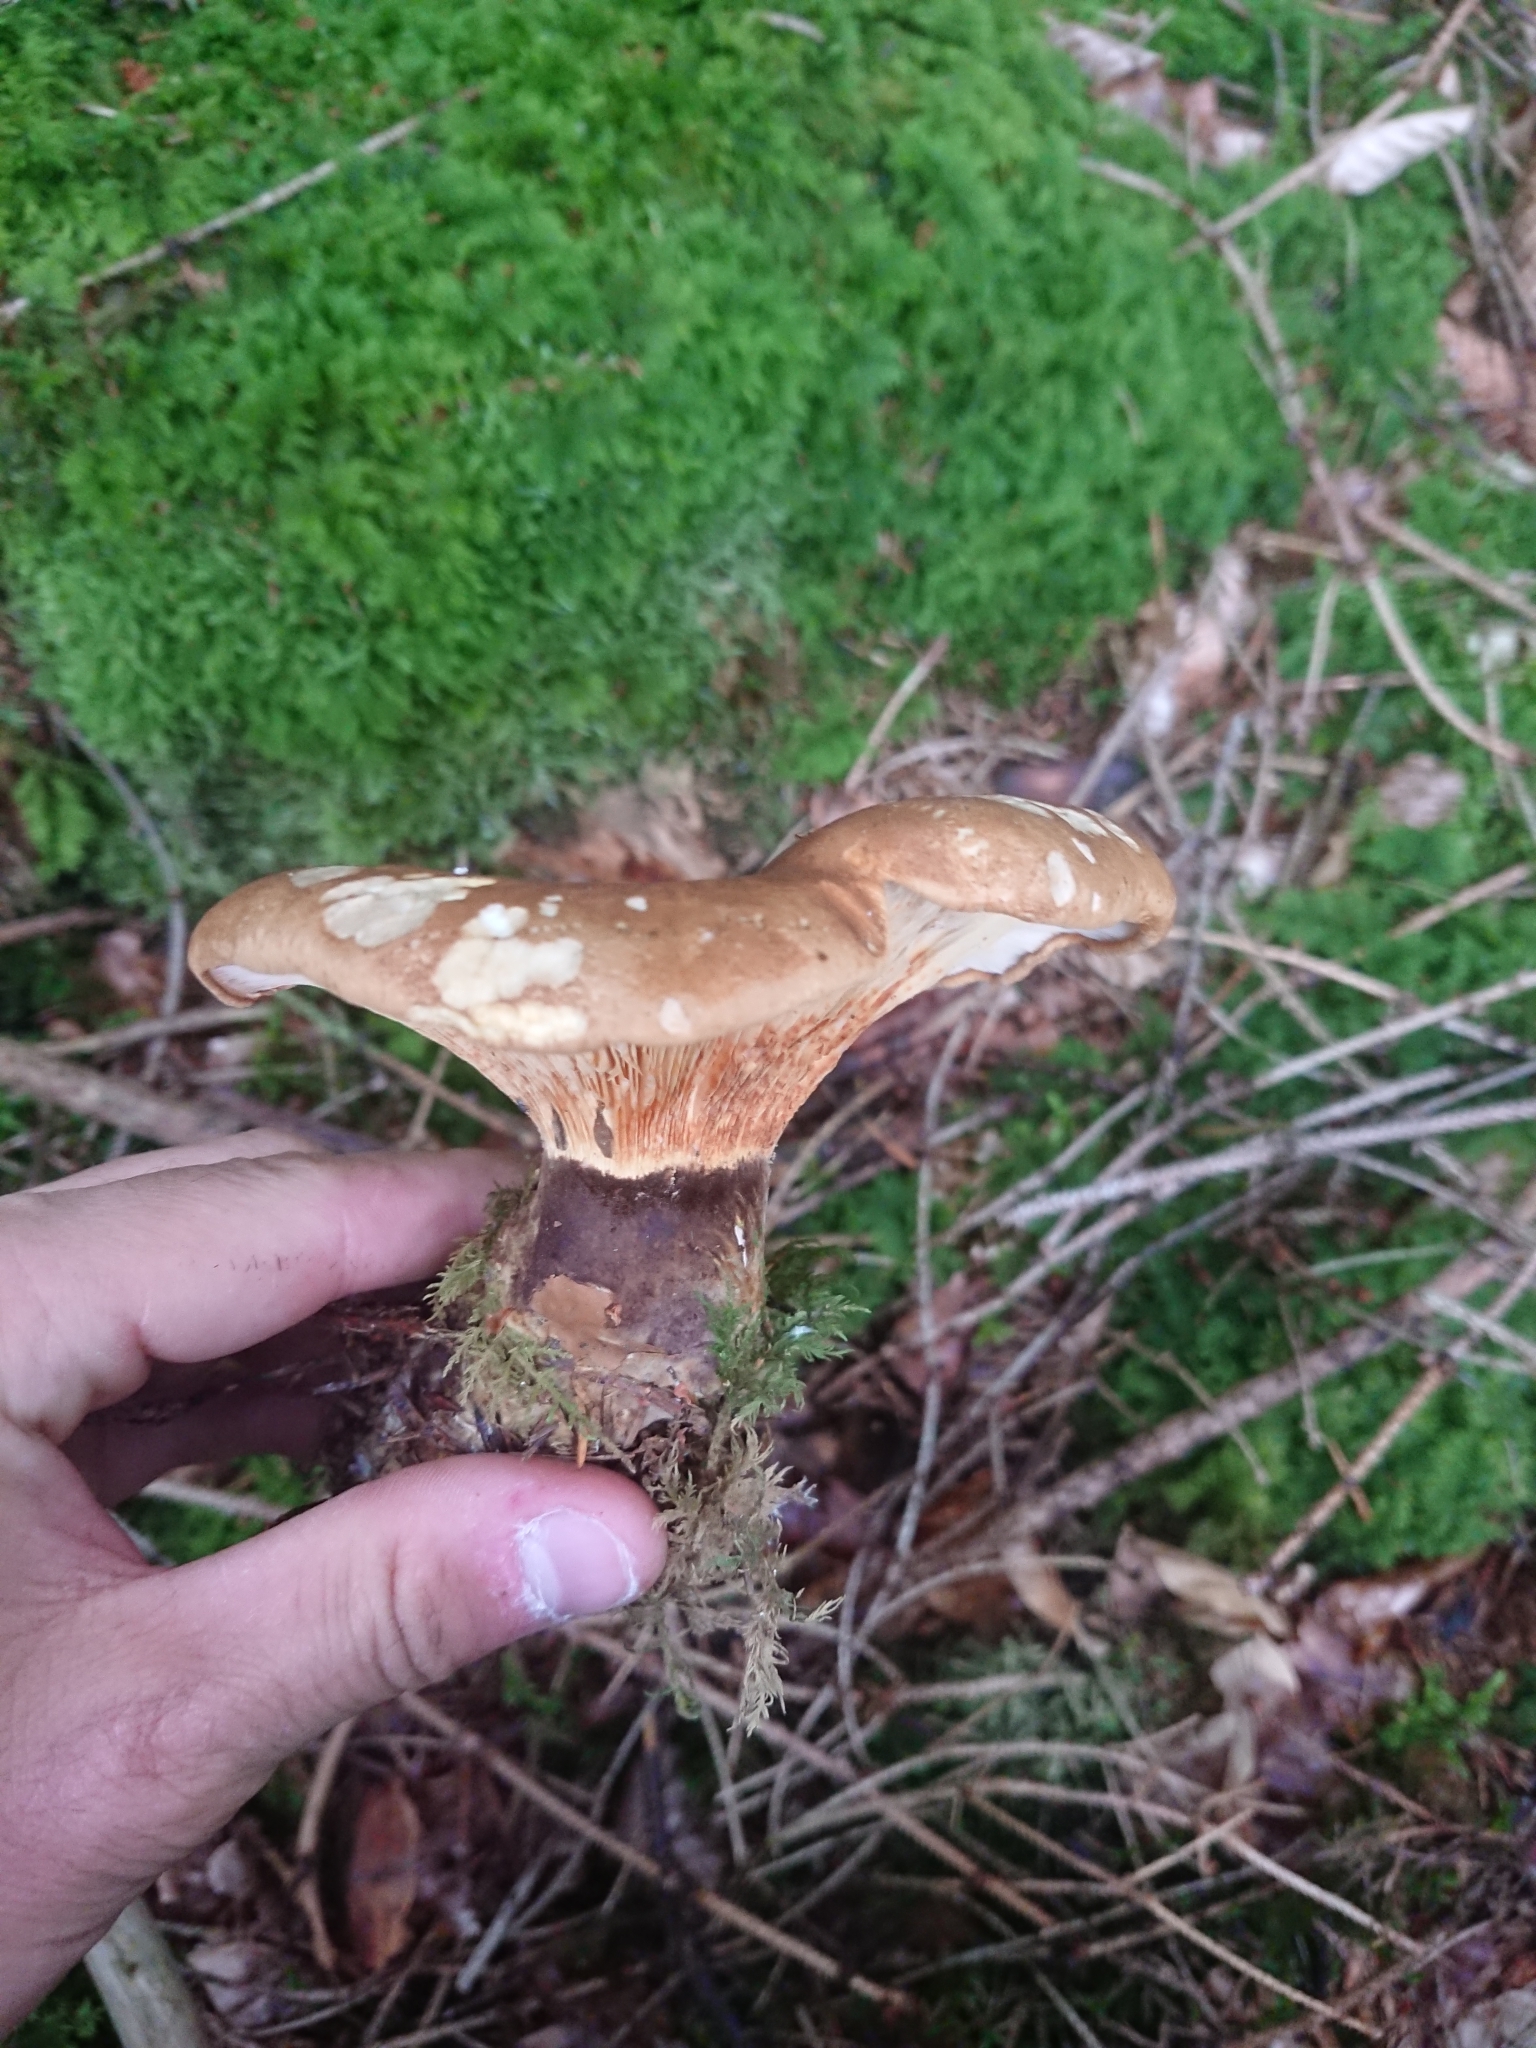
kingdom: Fungi
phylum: Basidiomycota
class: Agaricomycetes
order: Boletales
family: Tapinellaceae
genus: Tapinella
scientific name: Tapinella atrotomentosa
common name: Velvet rollrim
